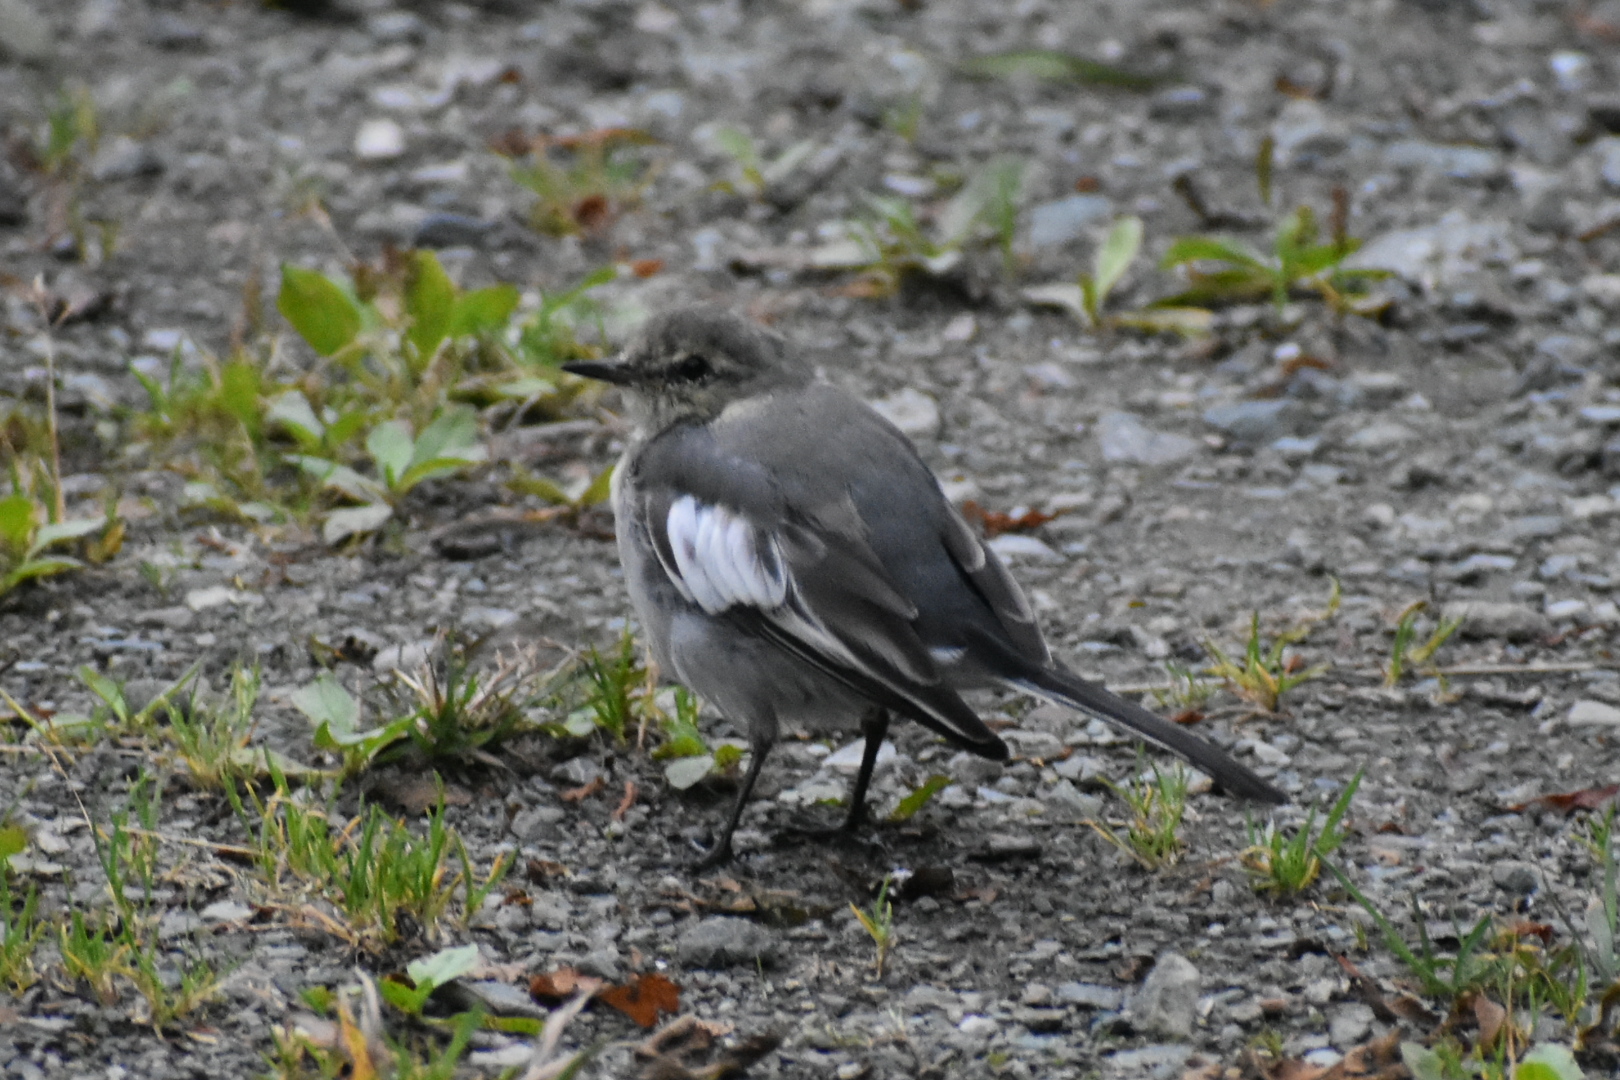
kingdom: Animalia
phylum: Chordata
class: Aves
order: Passeriformes
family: Motacillidae
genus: Motacilla
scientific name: Motacilla alba
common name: White wagtail
